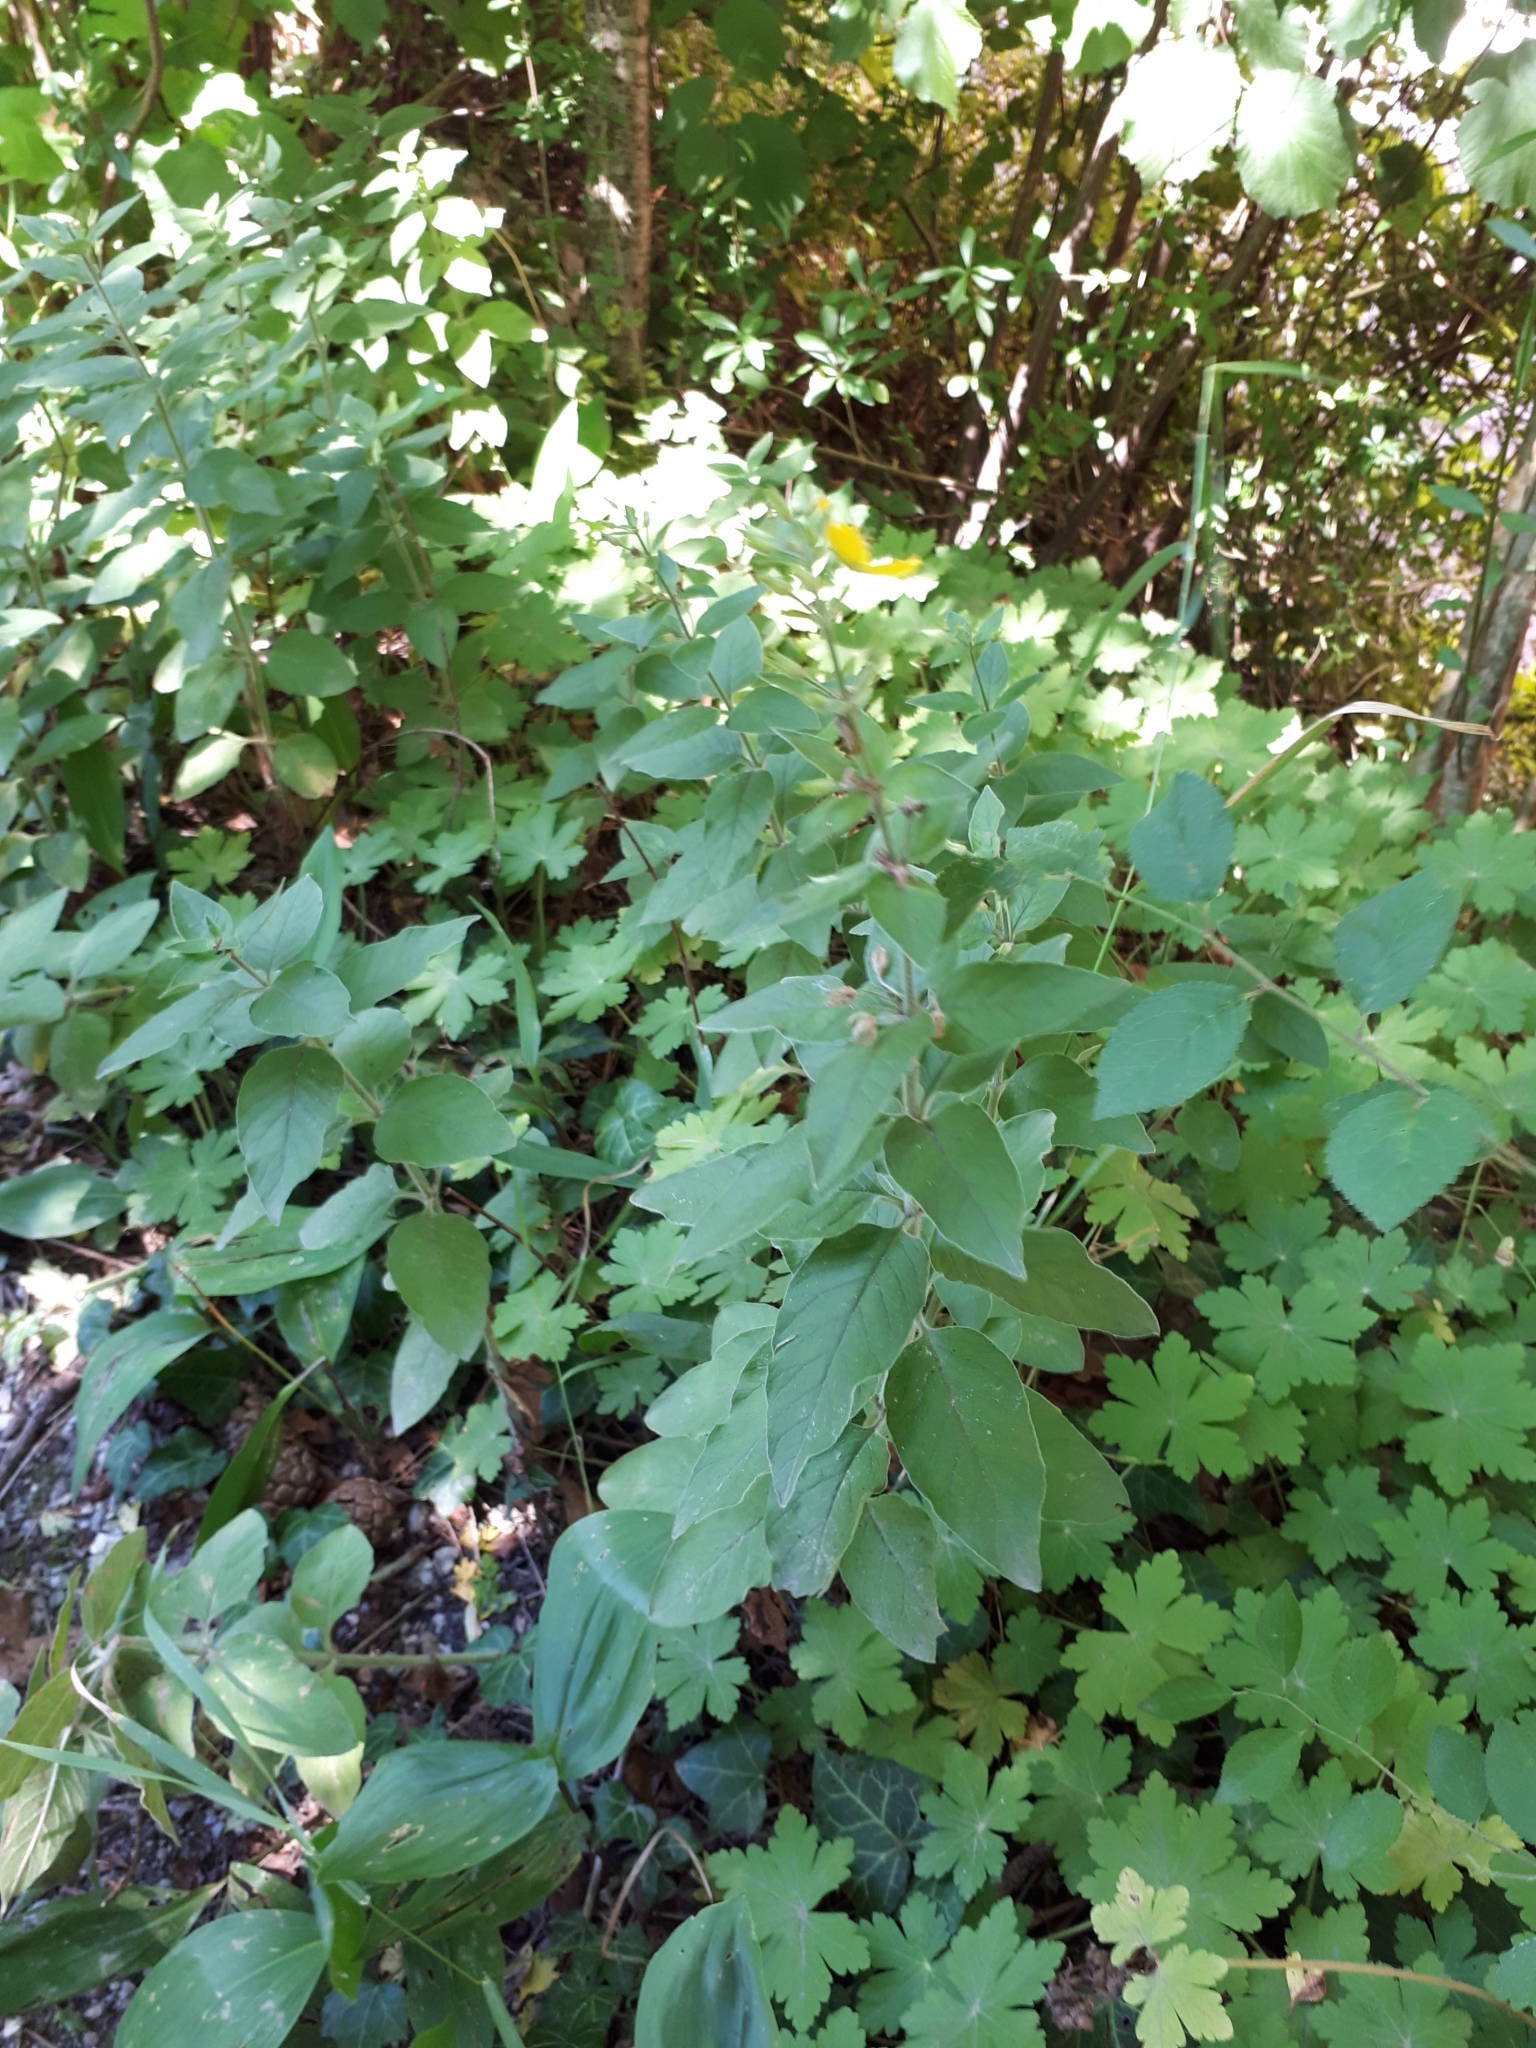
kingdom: Plantae
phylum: Tracheophyta
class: Magnoliopsida
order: Ericales
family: Primulaceae
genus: Lysimachia
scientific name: Lysimachia punctata
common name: Dotted loosestrife
